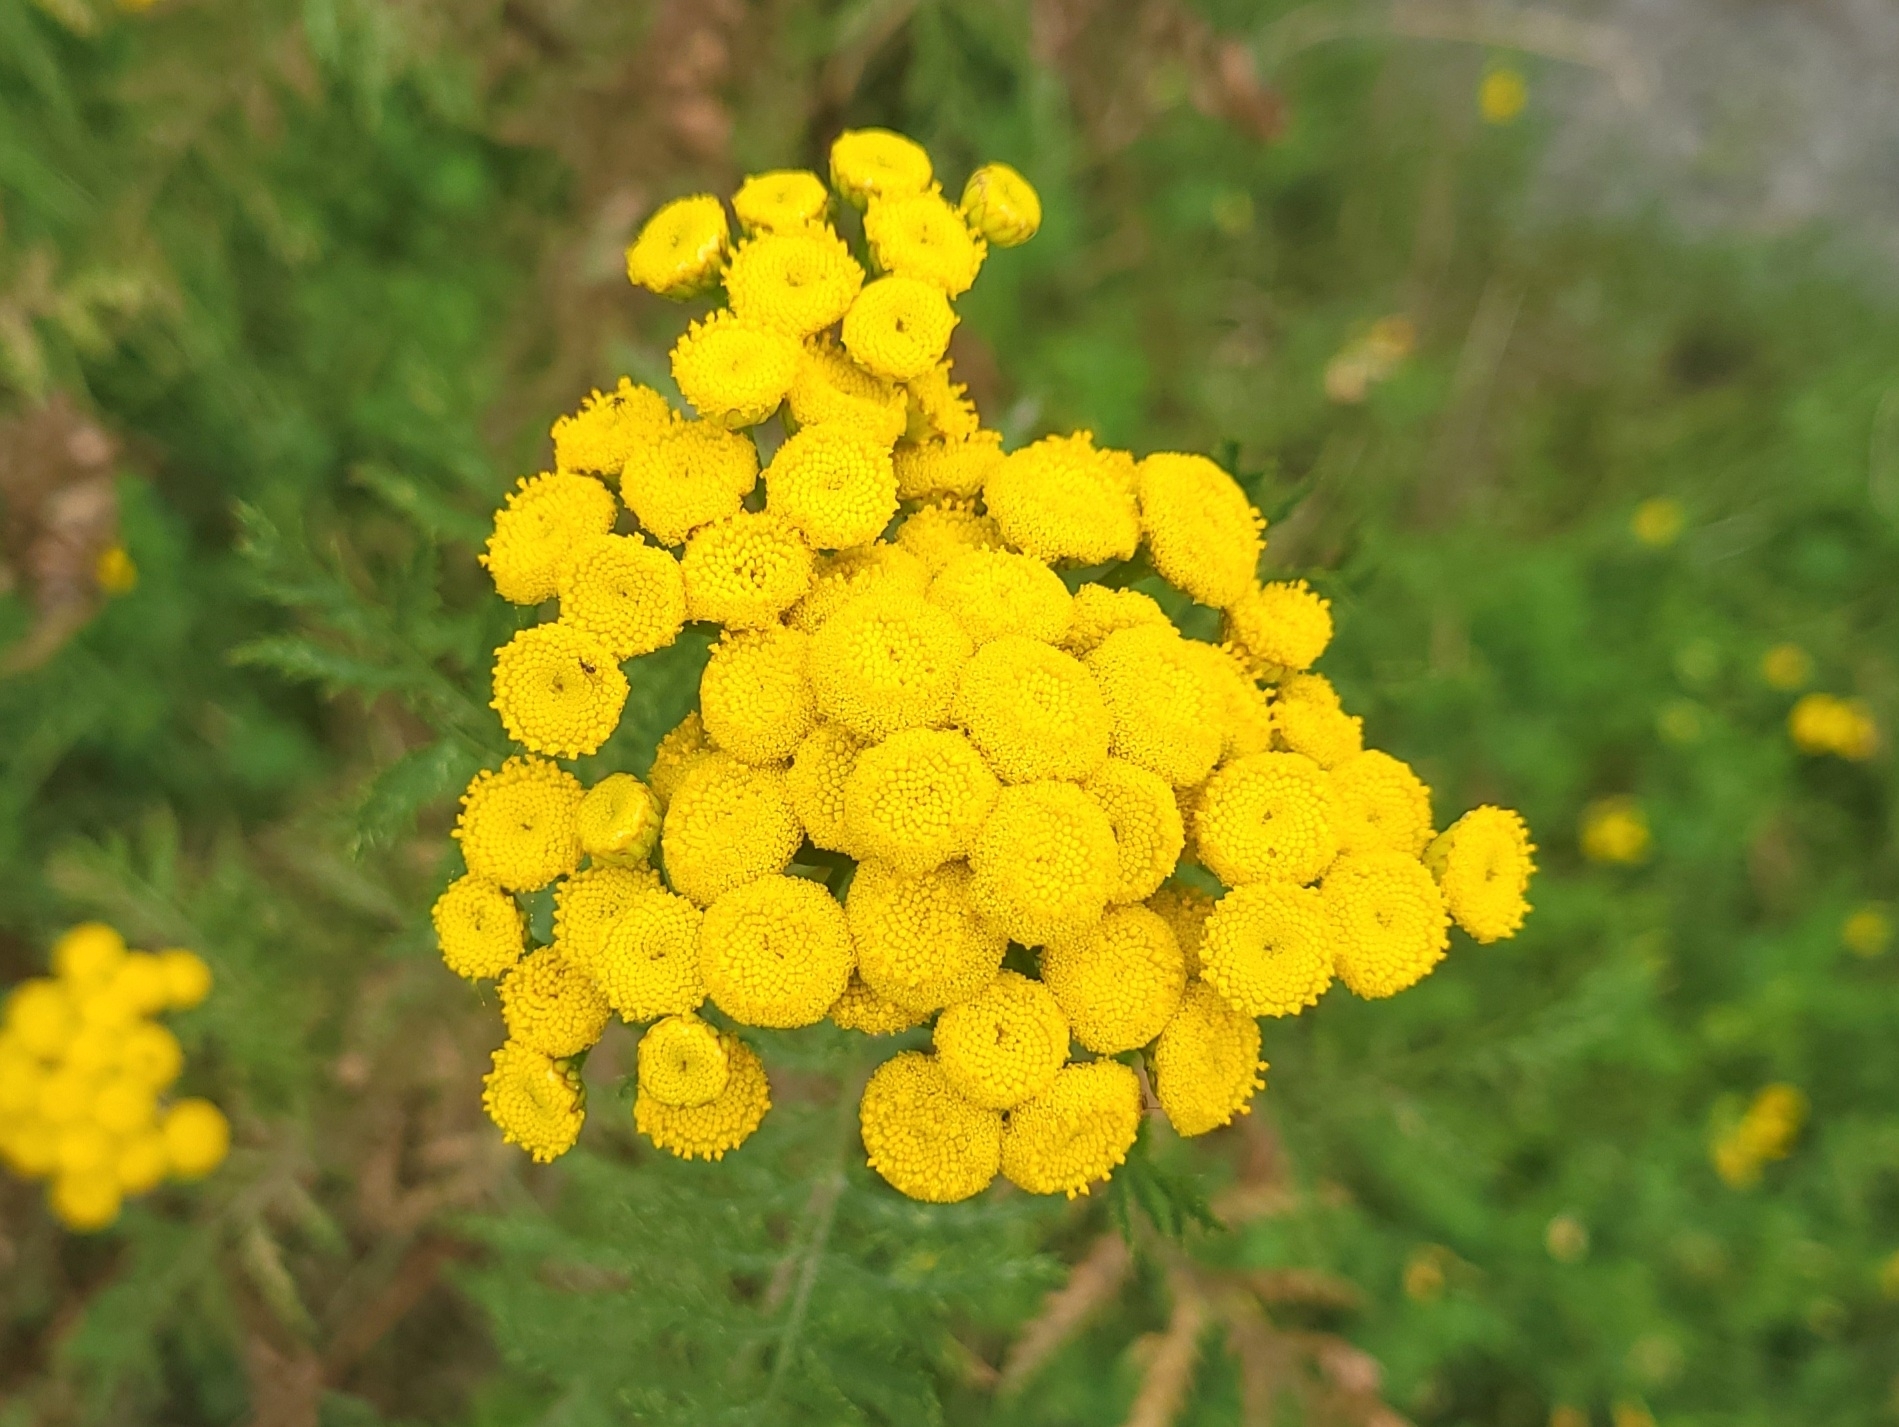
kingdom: Plantae
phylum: Tracheophyta
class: Magnoliopsida
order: Asterales
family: Asteraceae
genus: Tanacetum
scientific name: Tanacetum vulgare
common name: Common tansy
